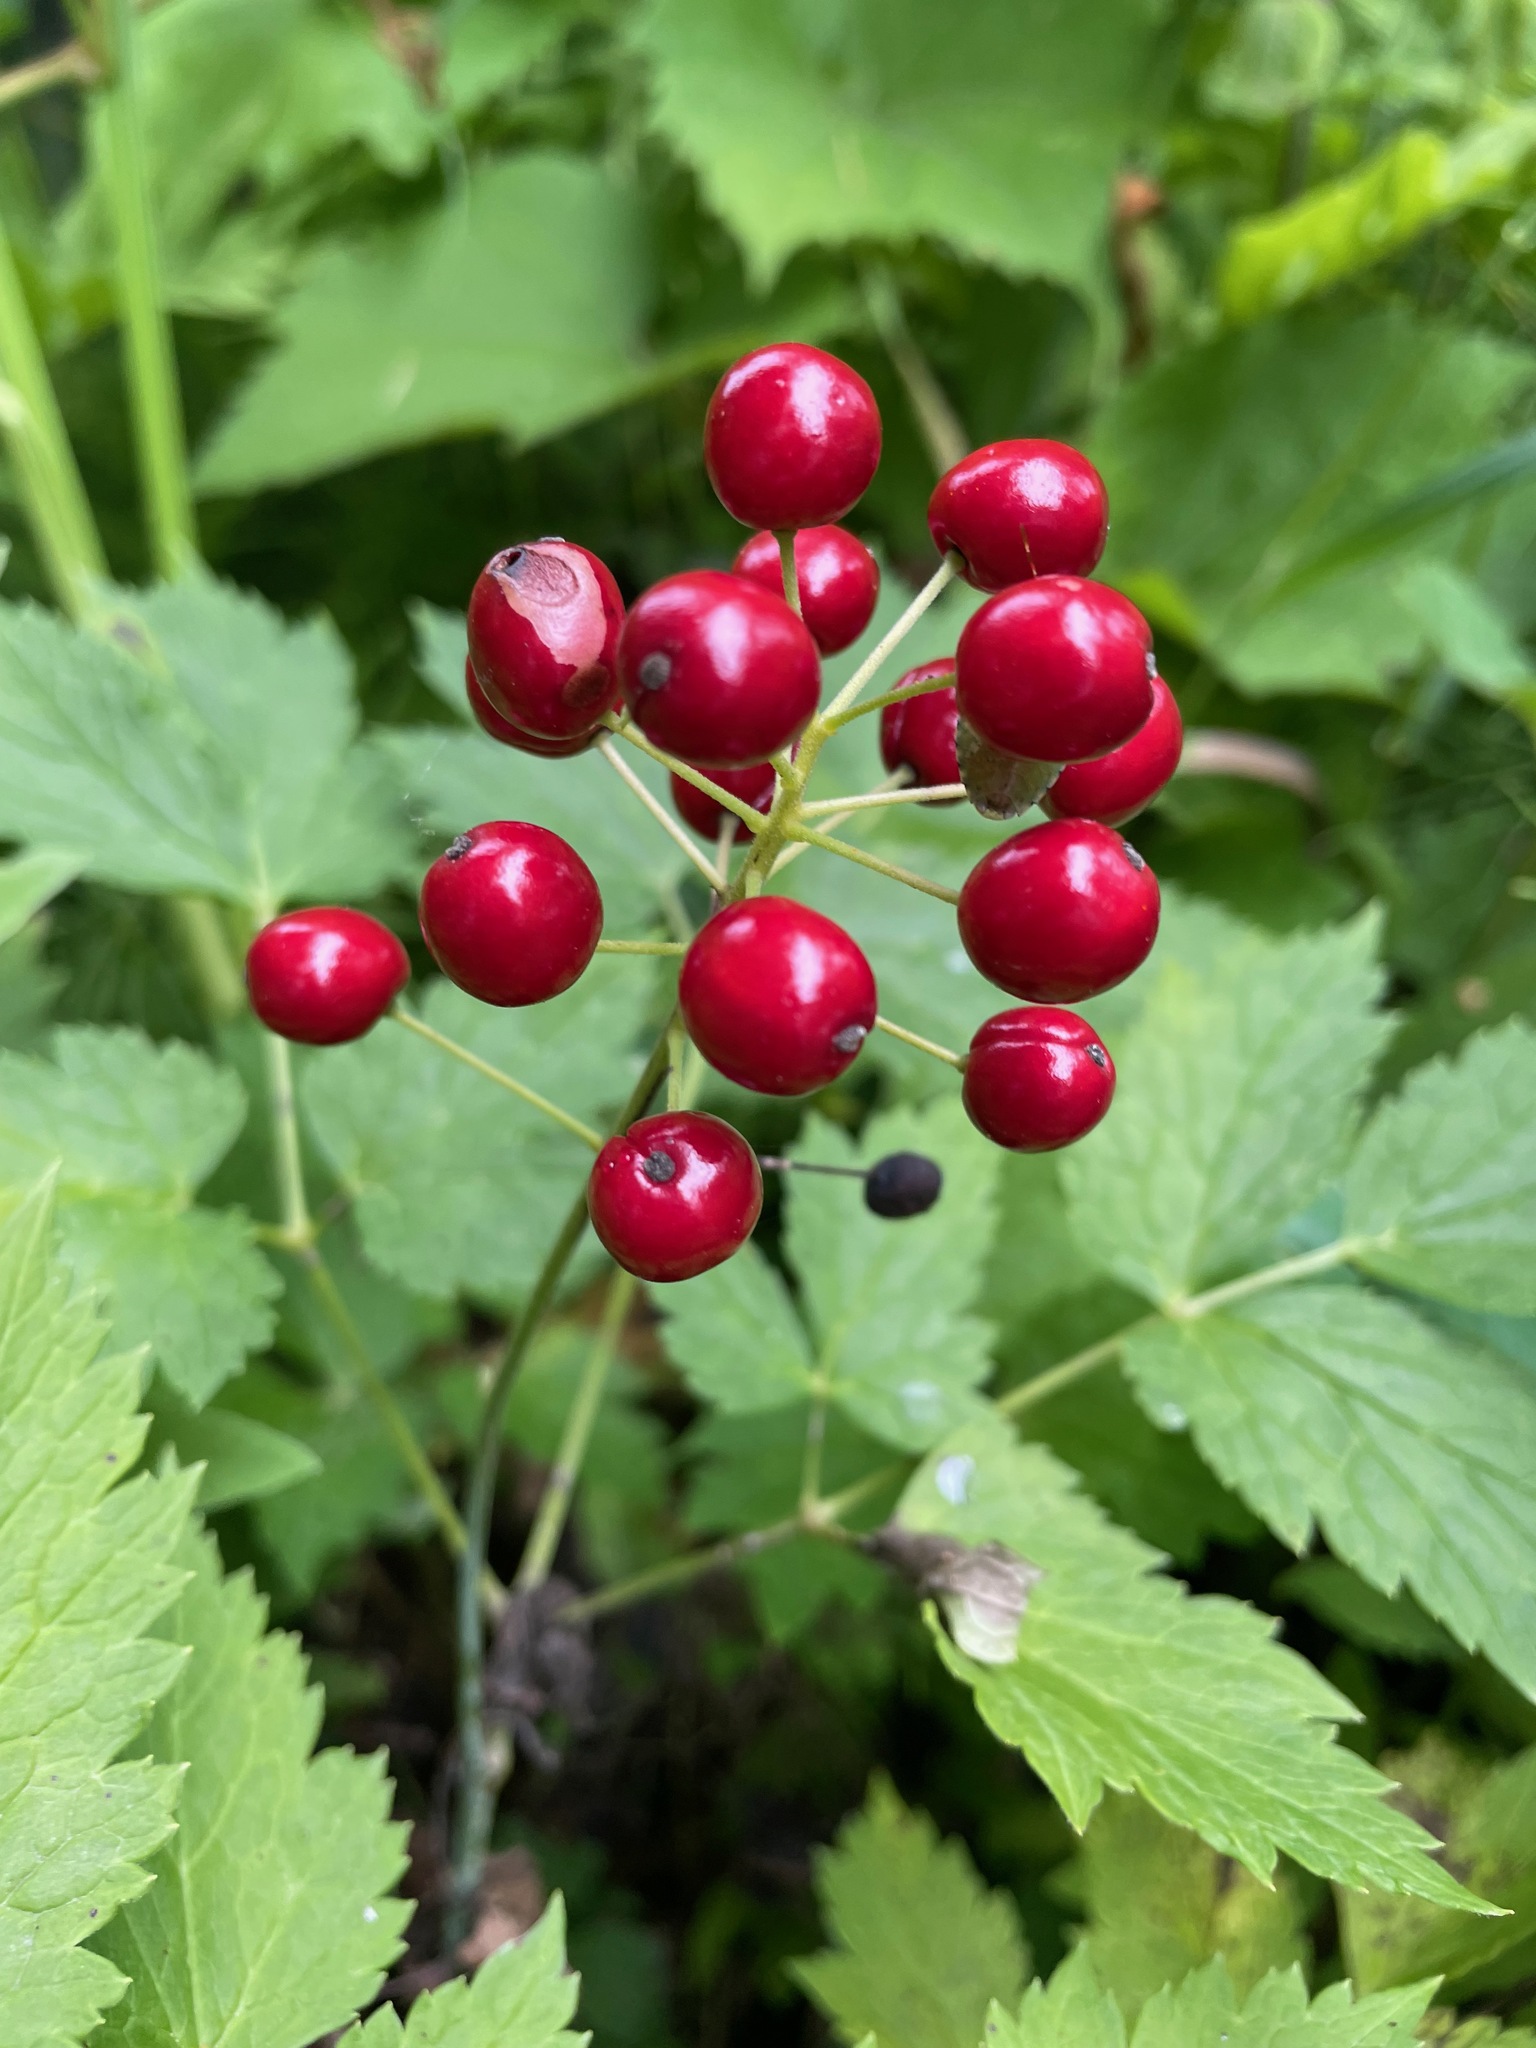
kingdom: Plantae
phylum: Tracheophyta
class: Magnoliopsida
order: Ranunculales
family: Ranunculaceae
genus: Actaea
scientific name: Actaea rubra
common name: Red baneberry
